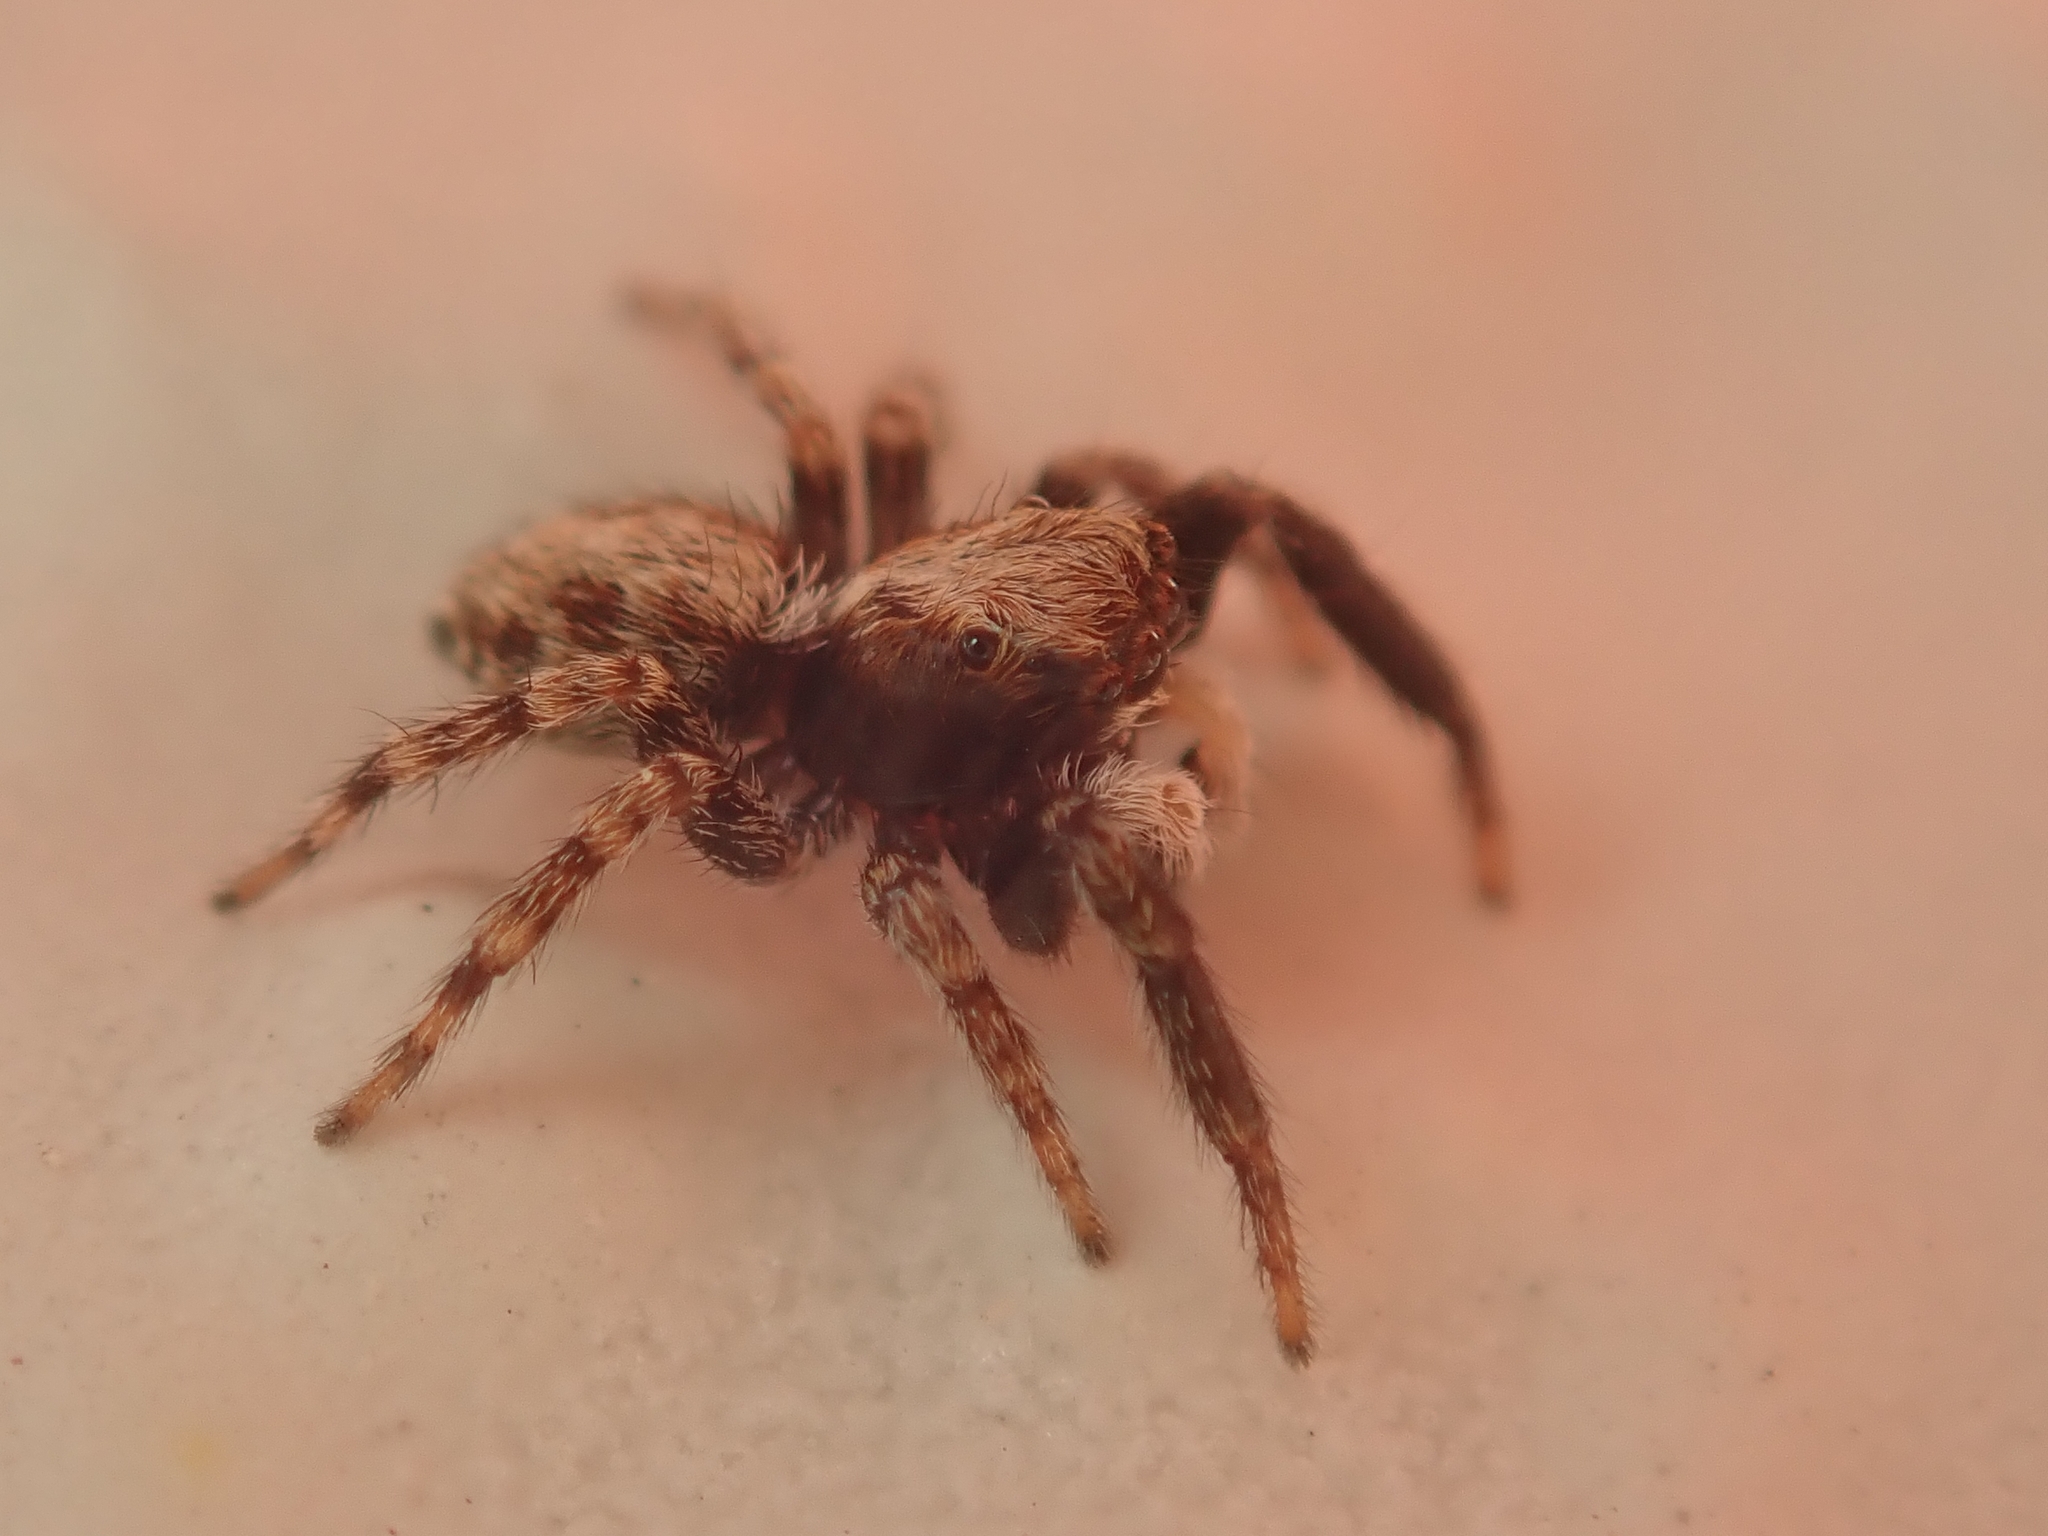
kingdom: Animalia
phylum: Arthropoda
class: Arachnida
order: Araneae
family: Salticidae
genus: Pseudeuophrys
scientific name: Pseudeuophrys lanigera
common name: Jumping spider
